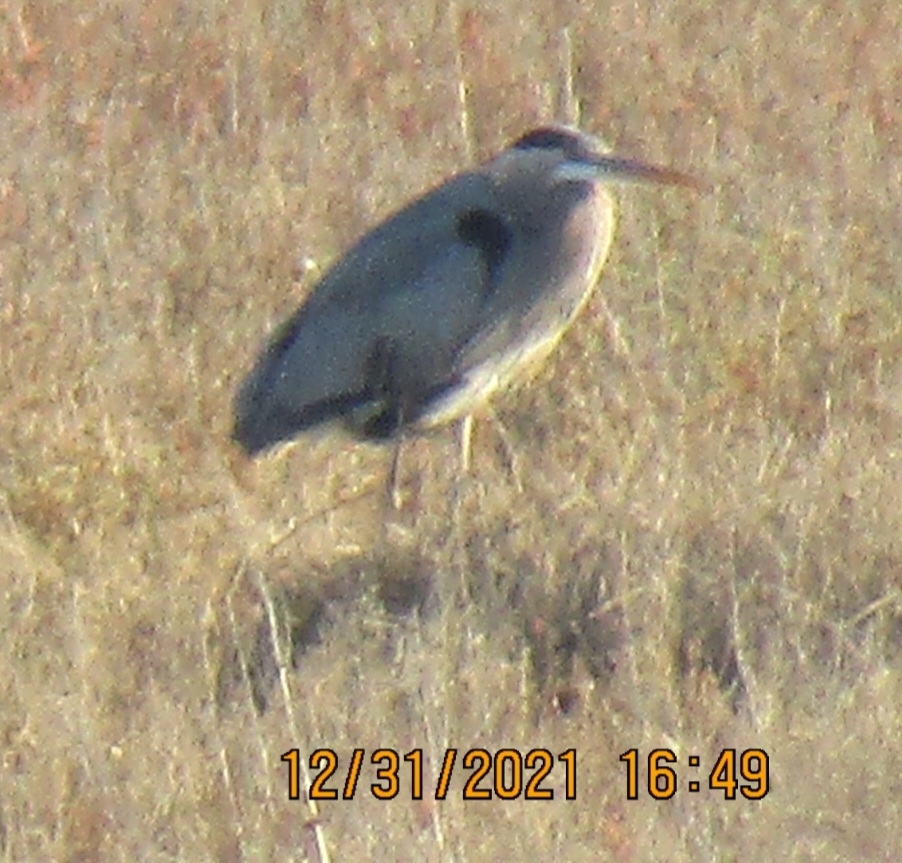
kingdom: Animalia
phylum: Chordata
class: Aves
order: Pelecaniformes
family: Ardeidae
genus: Ardea
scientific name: Ardea herodias
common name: Great blue heron
